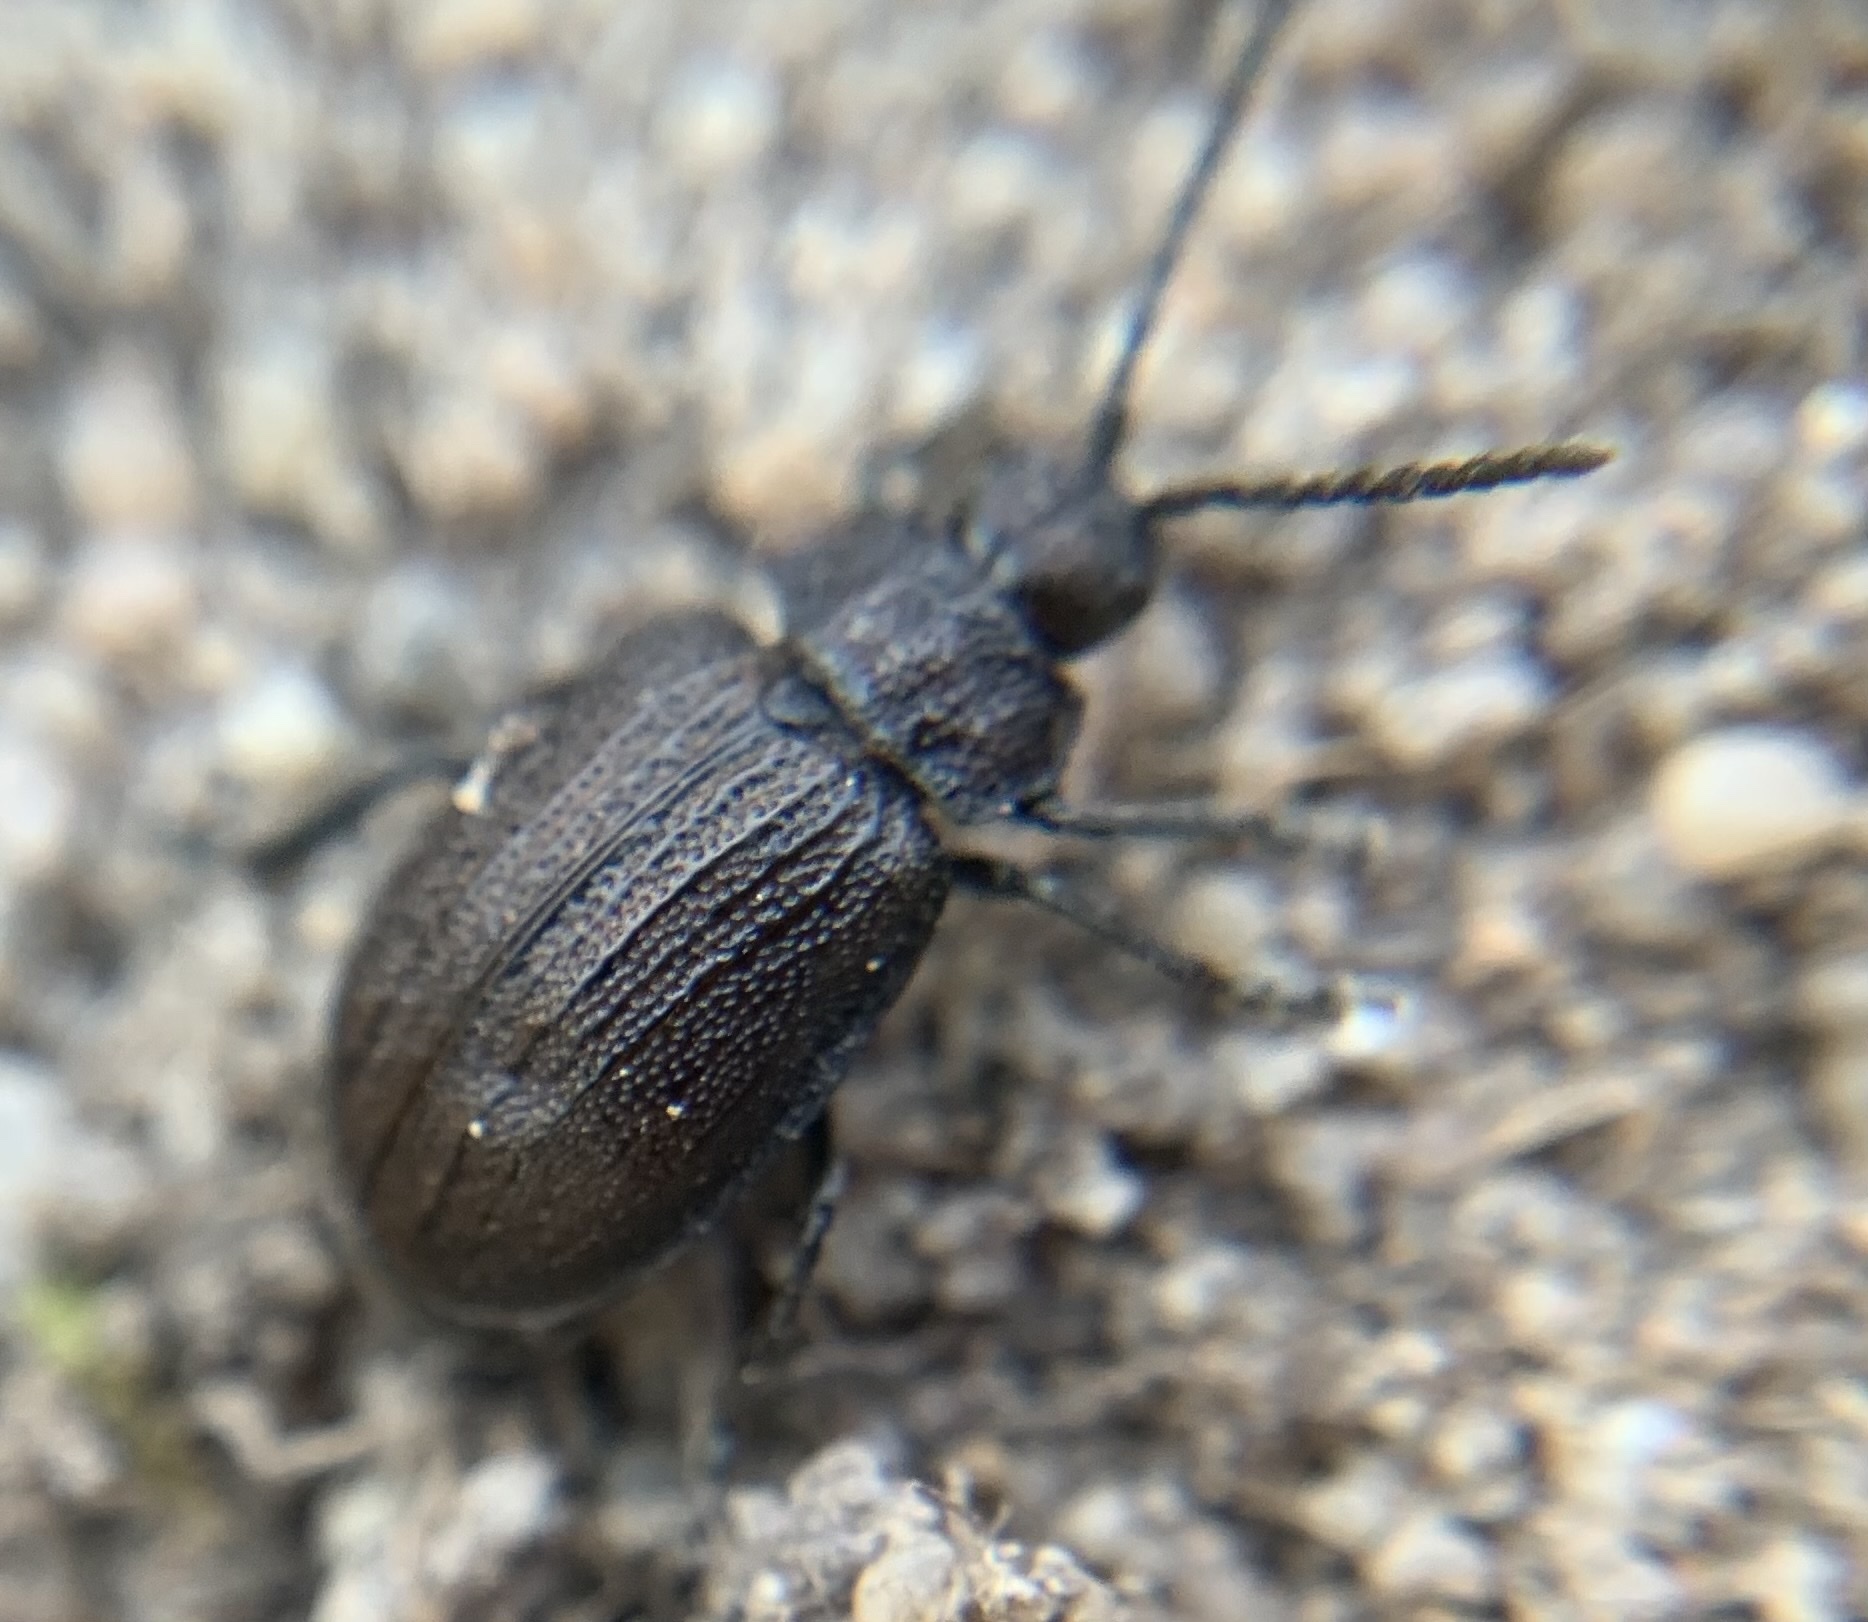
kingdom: Animalia
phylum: Arthropoda
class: Insecta
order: Coleoptera
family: Chrysomelidae
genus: Galeruca
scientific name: Galeruca pomonae
